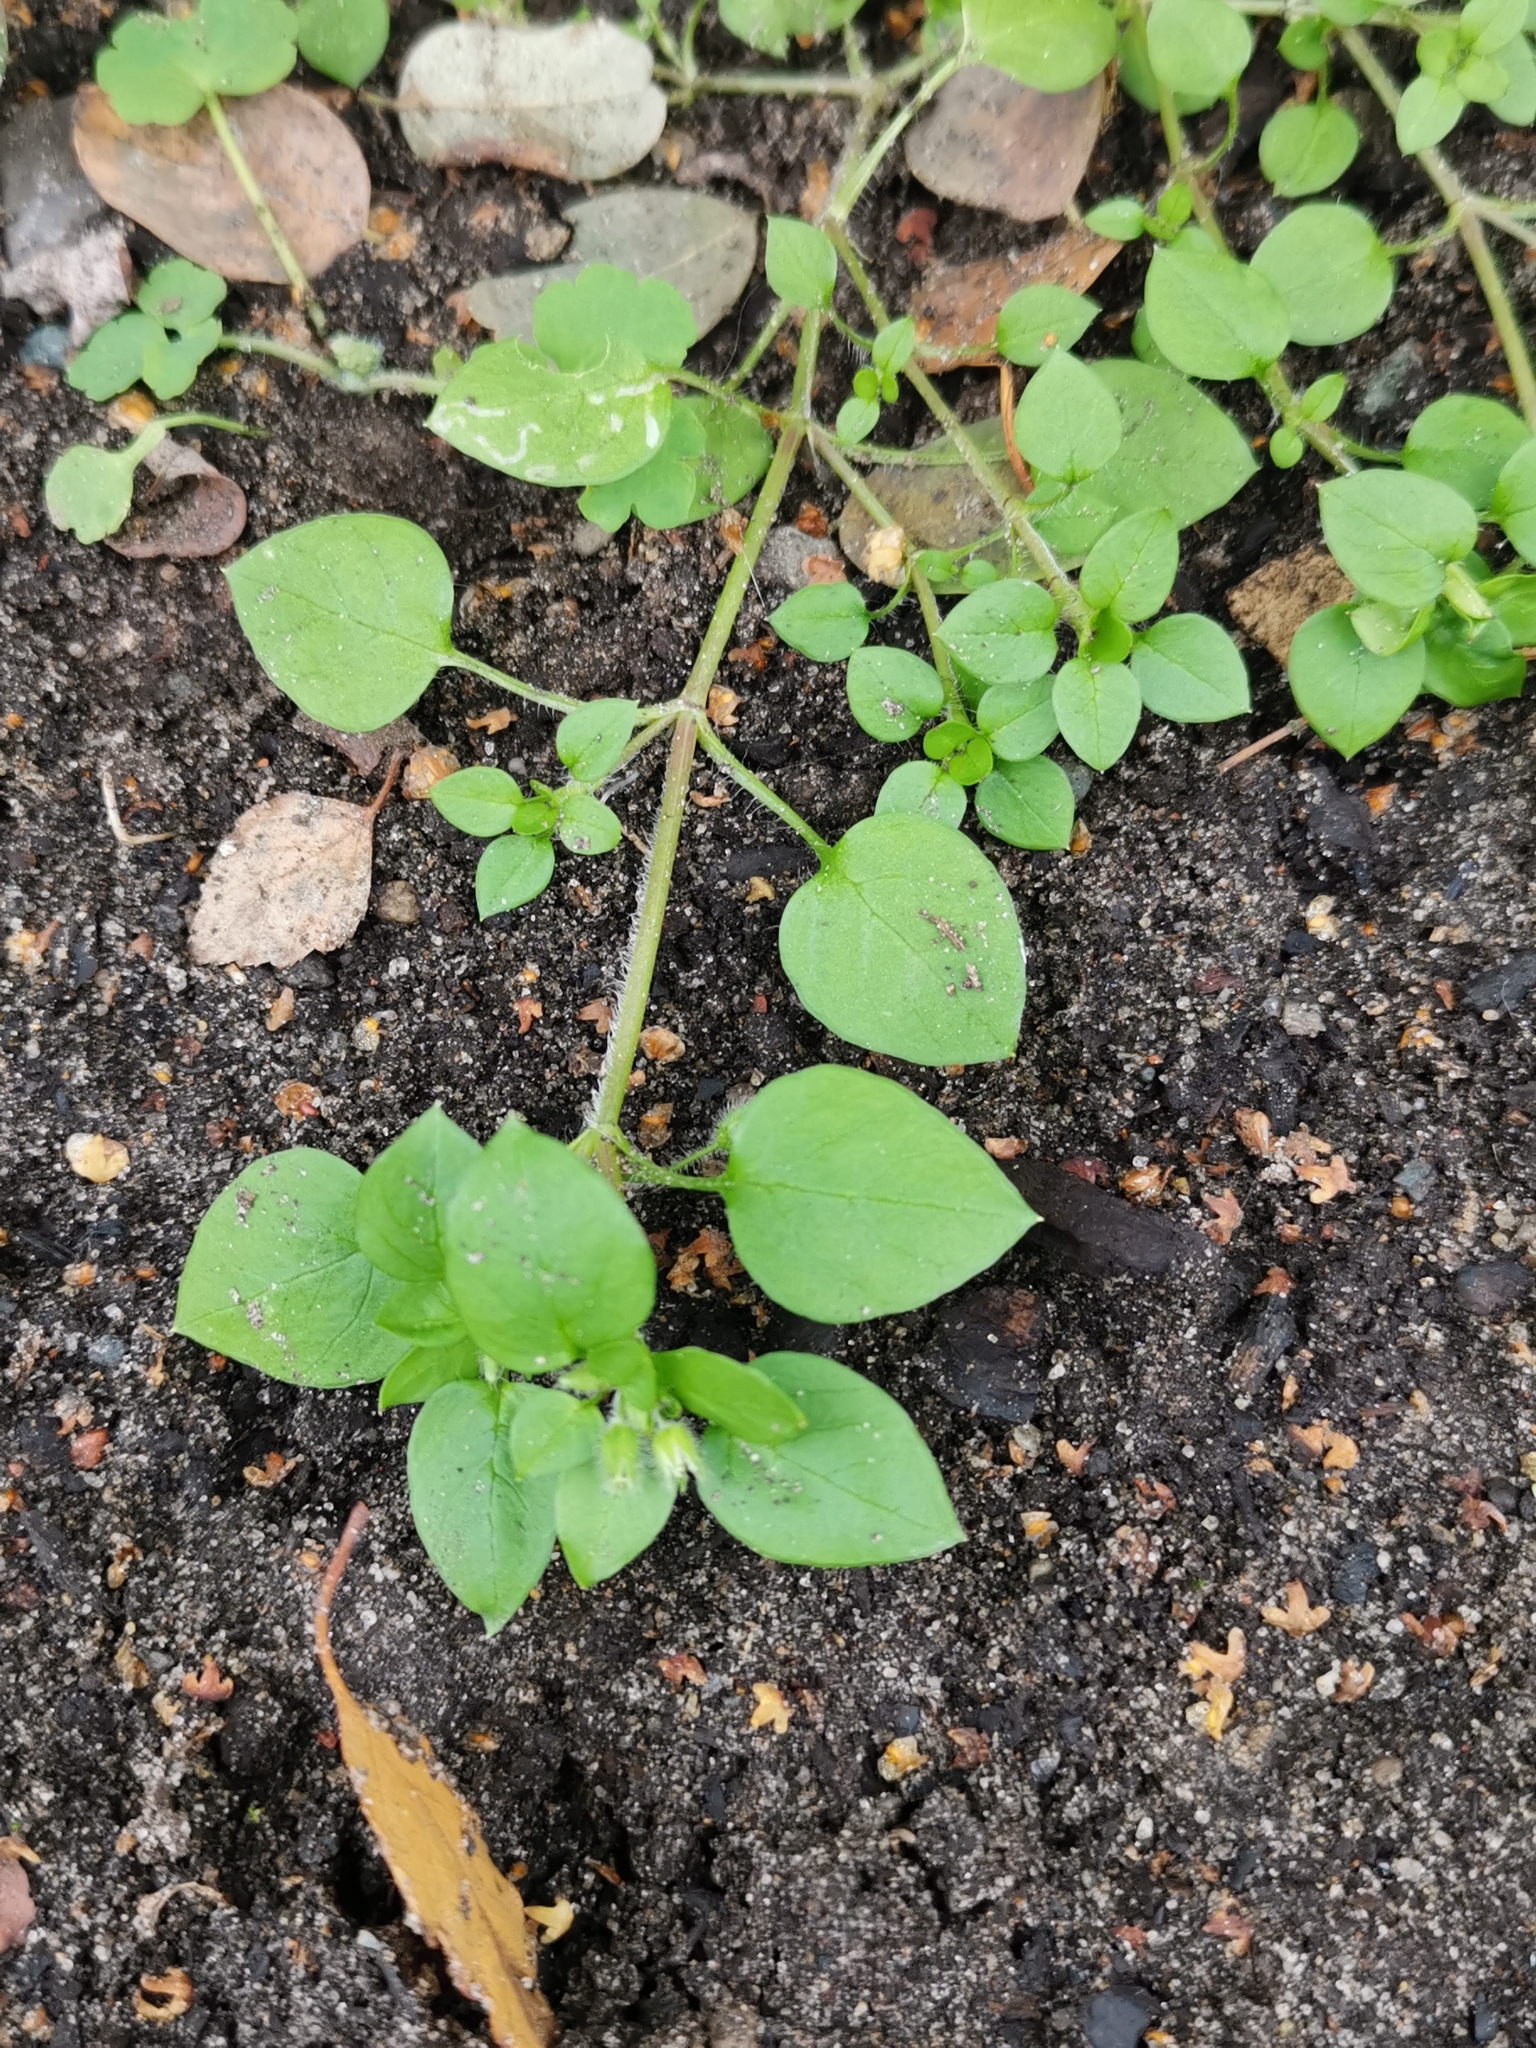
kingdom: Plantae
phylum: Tracheophyta
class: Magnoliopsida
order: Caryophyllales
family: Caryophyllaceae
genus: Stellaria
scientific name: Stellaria media
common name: Common chickweed
